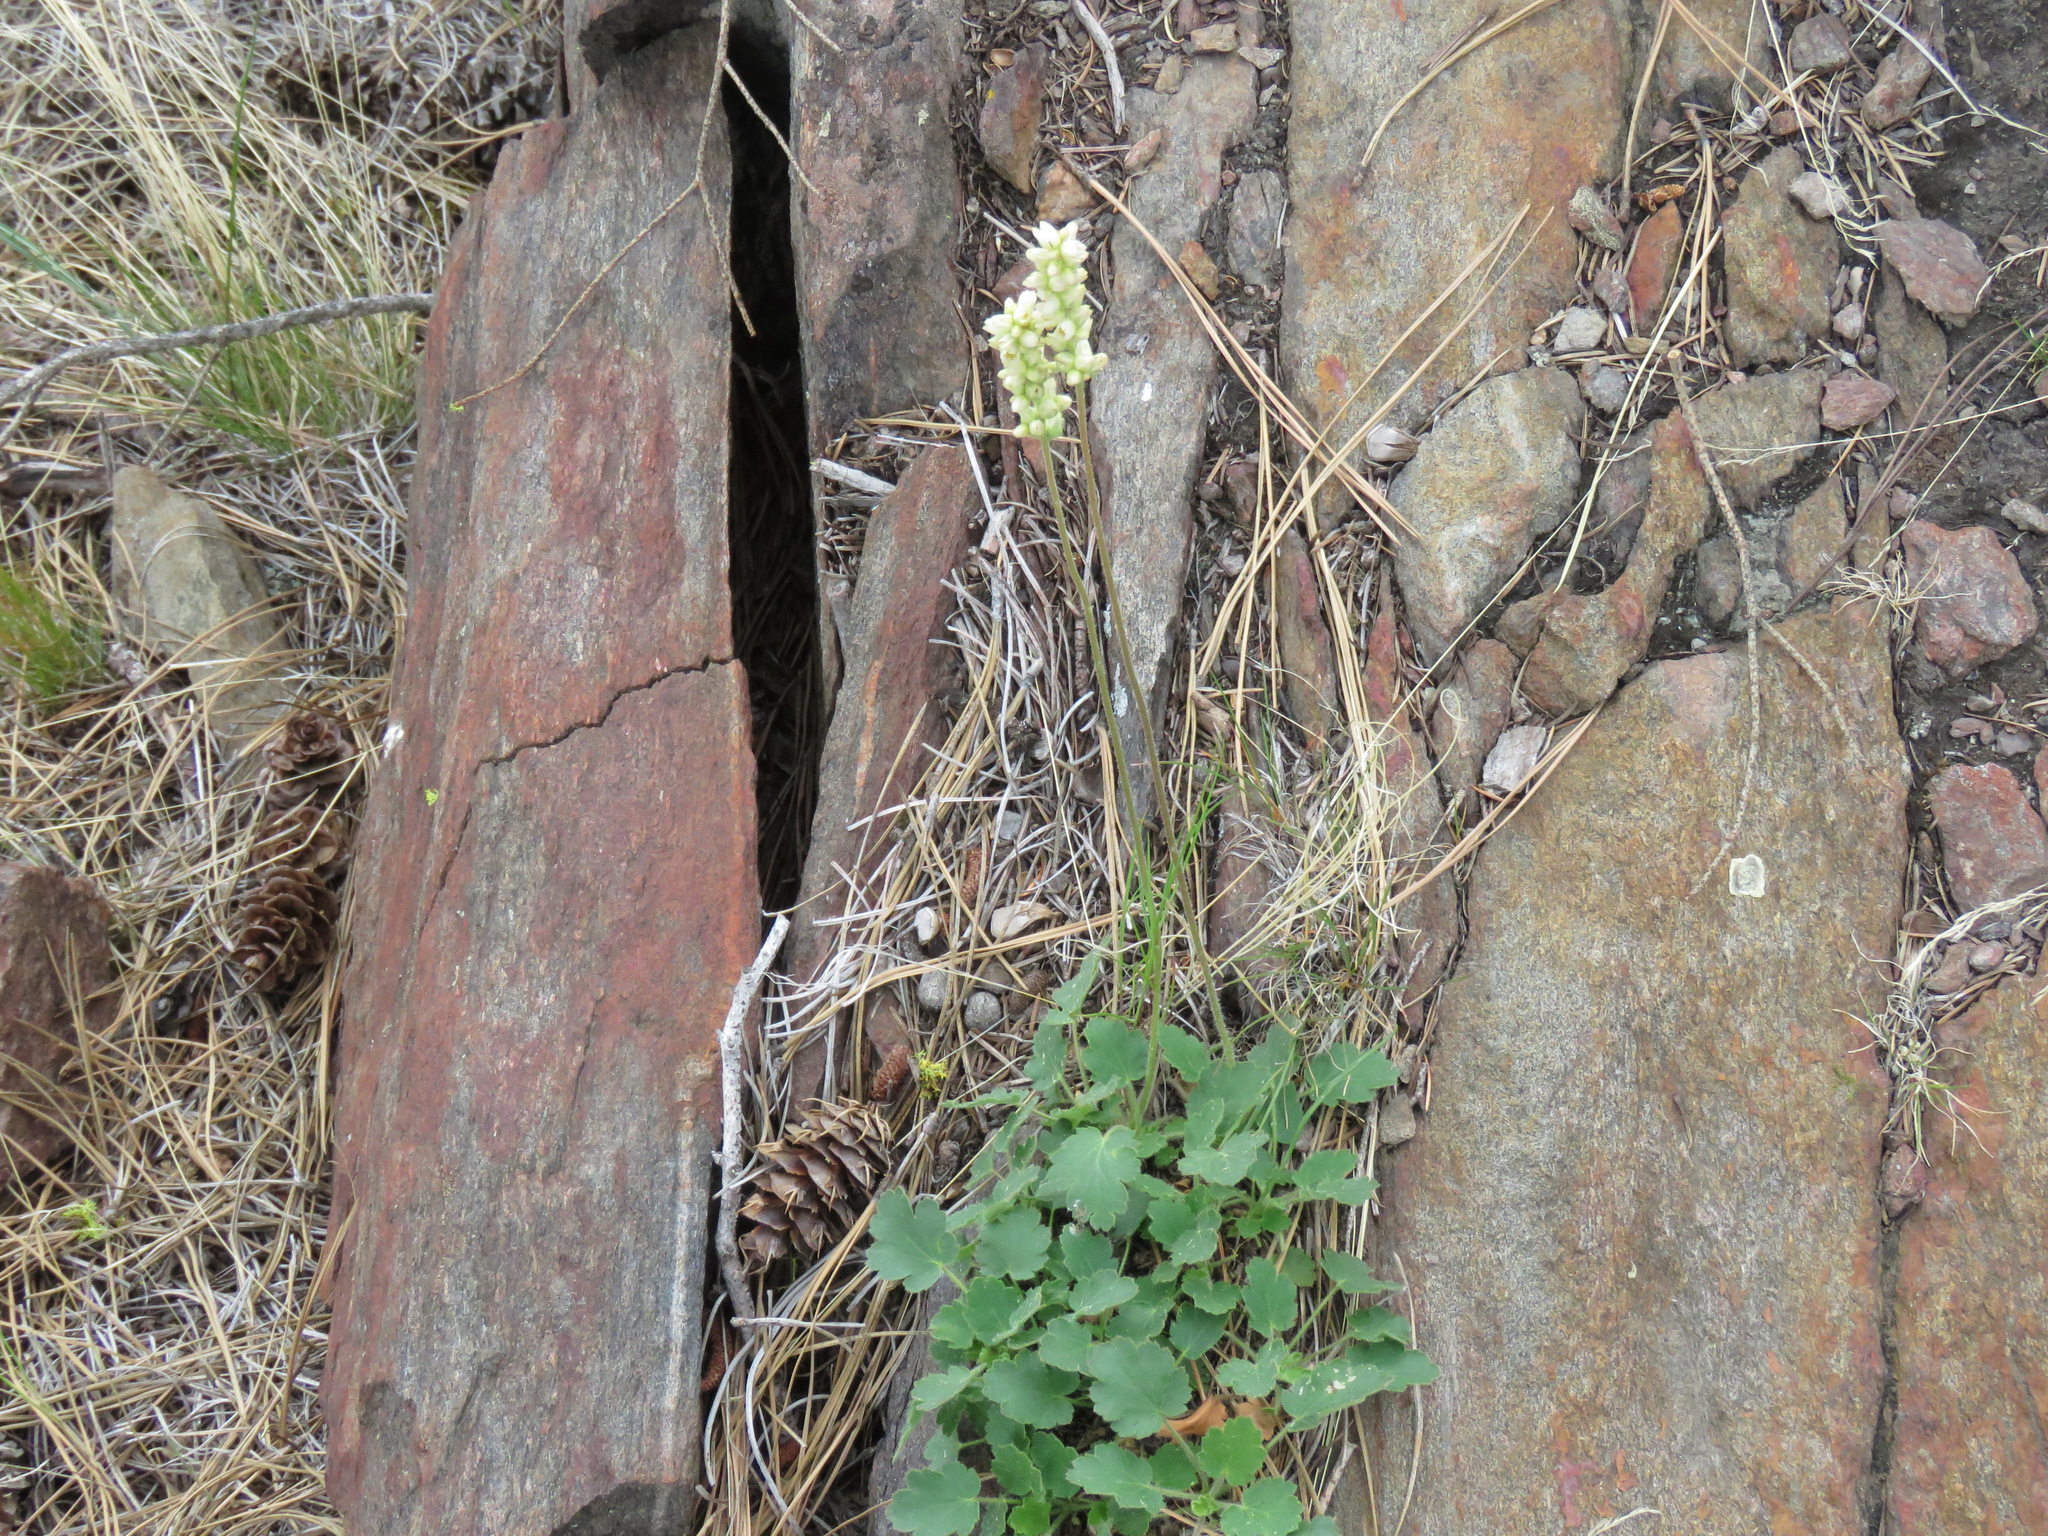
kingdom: Plantae
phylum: Tracheophyta
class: Magnoliopsida
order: Saxifragales
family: Saxifragaceae
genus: Heuchera
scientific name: Heuchera cylindrica
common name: Mat alumroot
